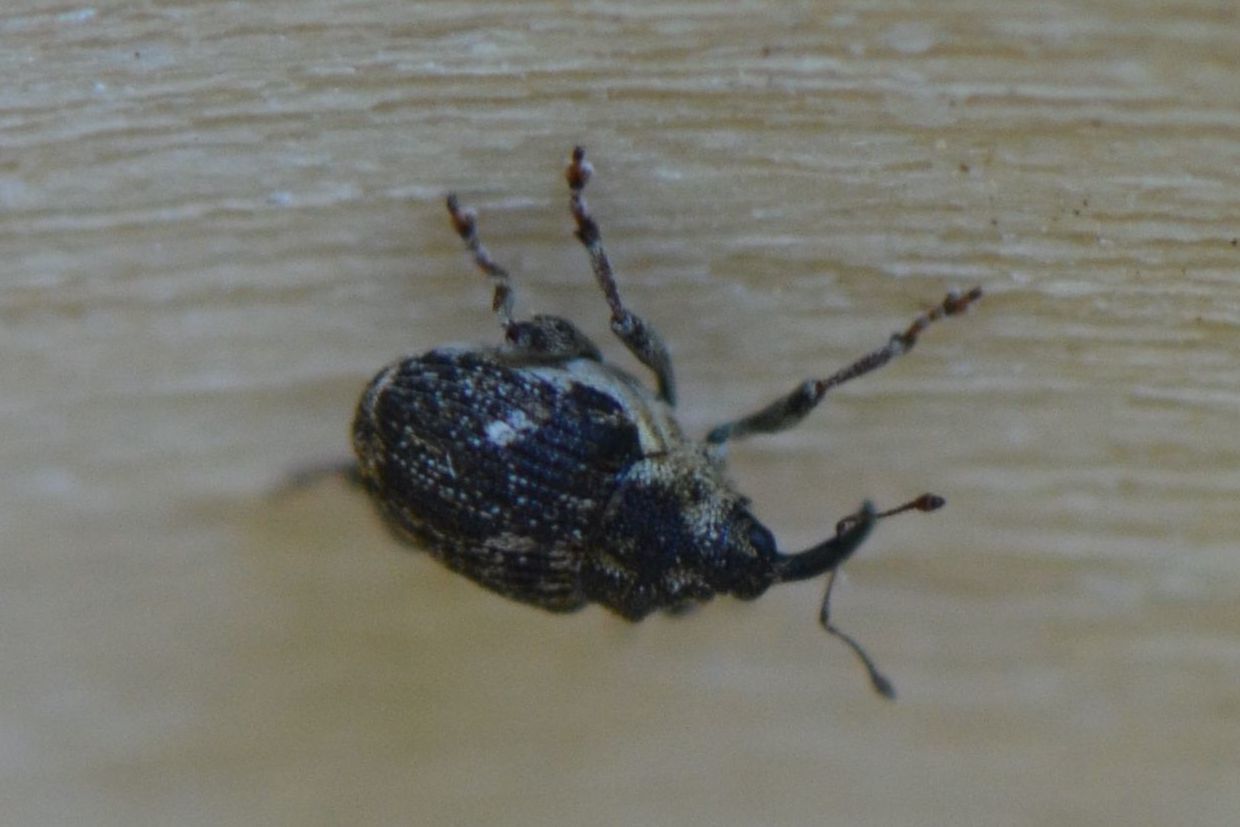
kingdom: Animalia
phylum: Arthropoda
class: Insecta
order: Coleoptera
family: Curculionidae
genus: Nedyus
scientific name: Nedyus quadrimaculatus
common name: Small nettle weevil
